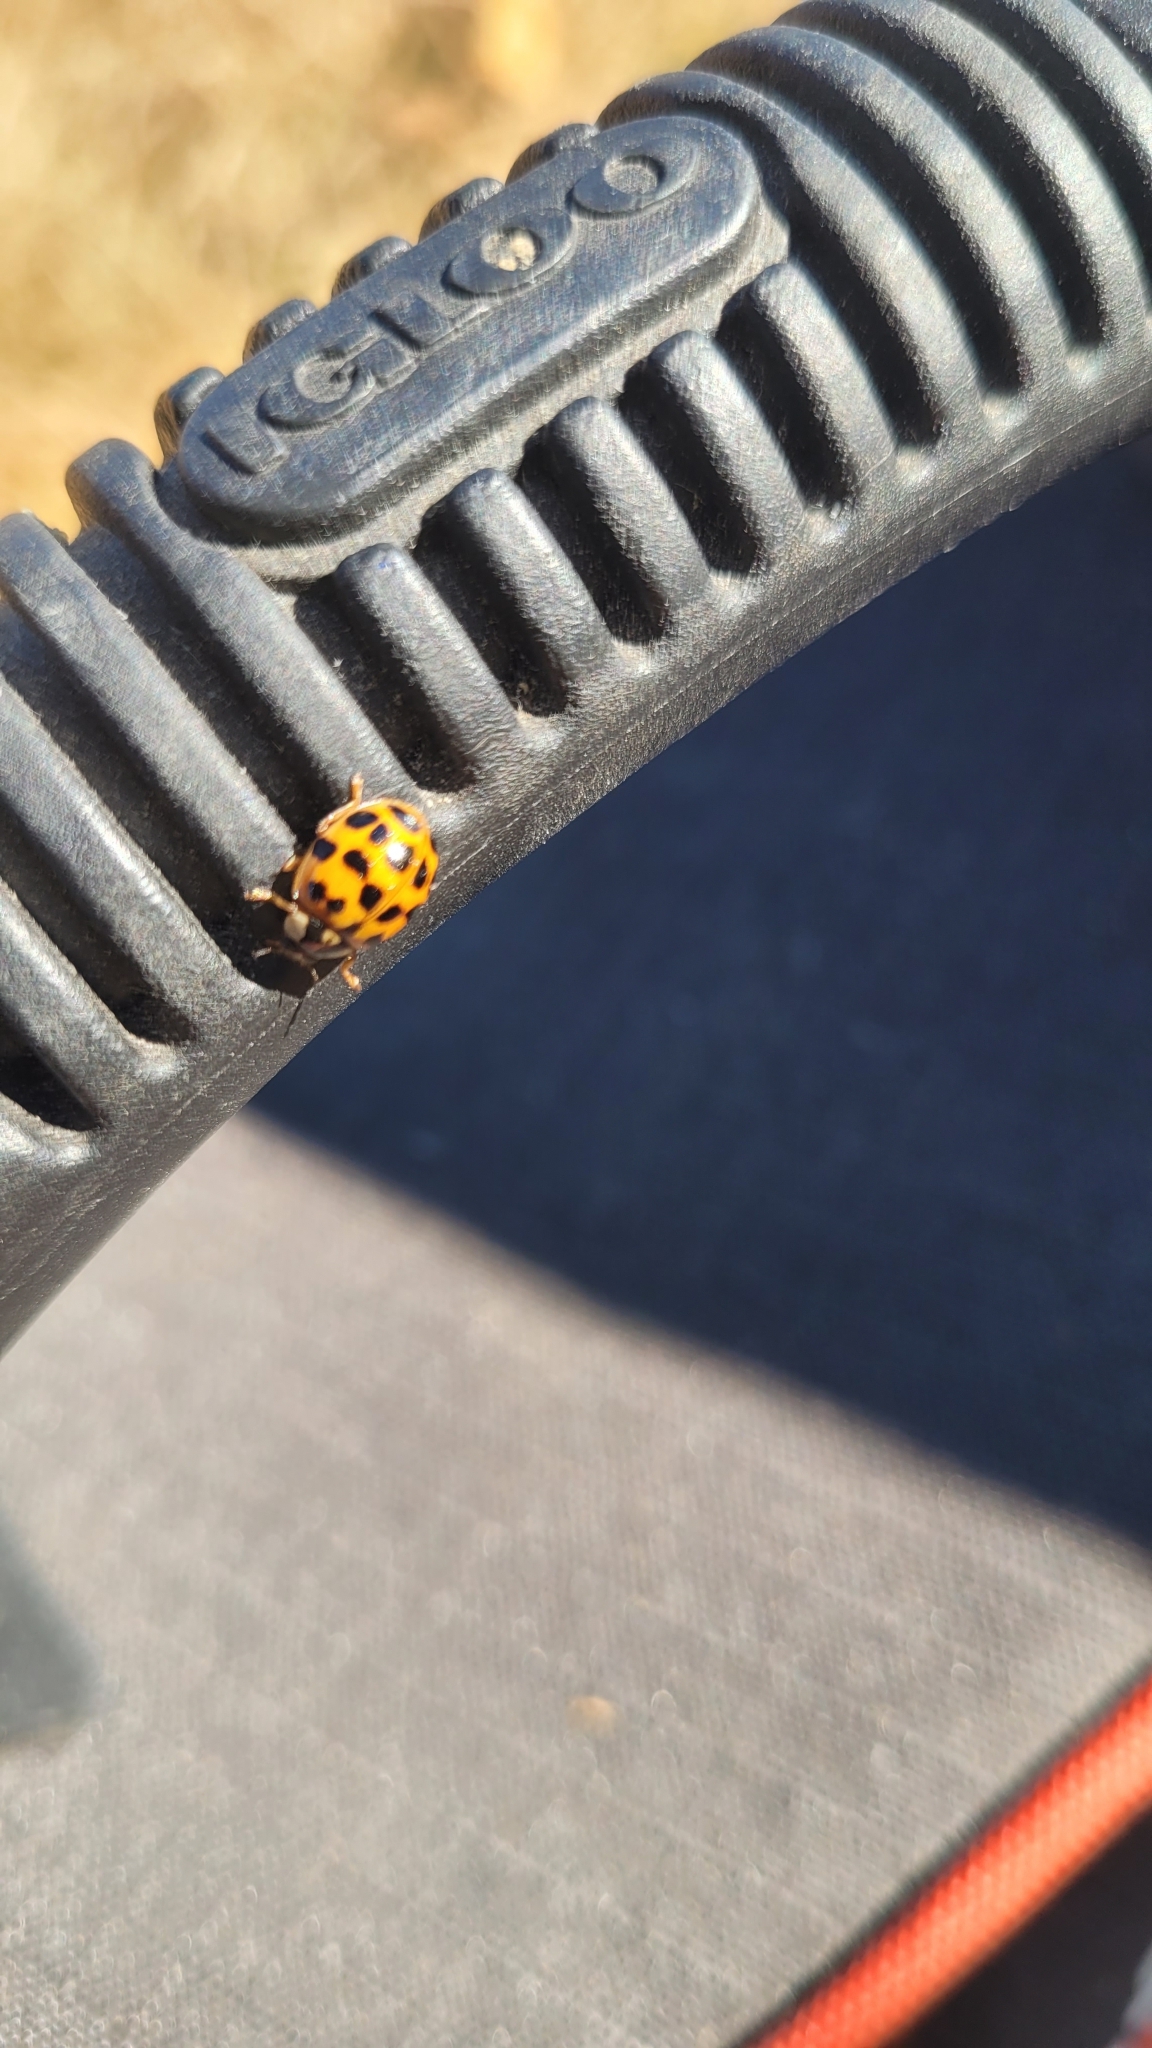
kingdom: Animalia
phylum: Arthropoda
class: Insecta
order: Coleoptera
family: Coccinellidae
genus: Harmonia
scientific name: Harmonia axyridis
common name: Harlequin ladybird
